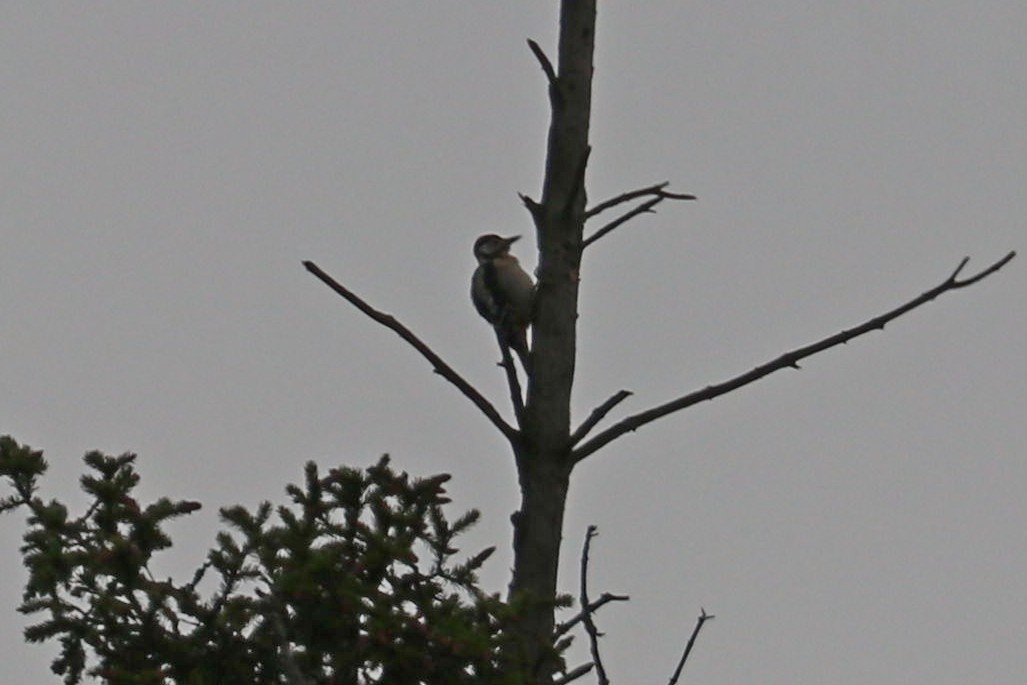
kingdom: Animalia
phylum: Chordata
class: Aves
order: Piciformes
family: Picidae
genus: Dendrocopos
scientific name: Dendrocopos major
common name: Great spotted woodpecker
